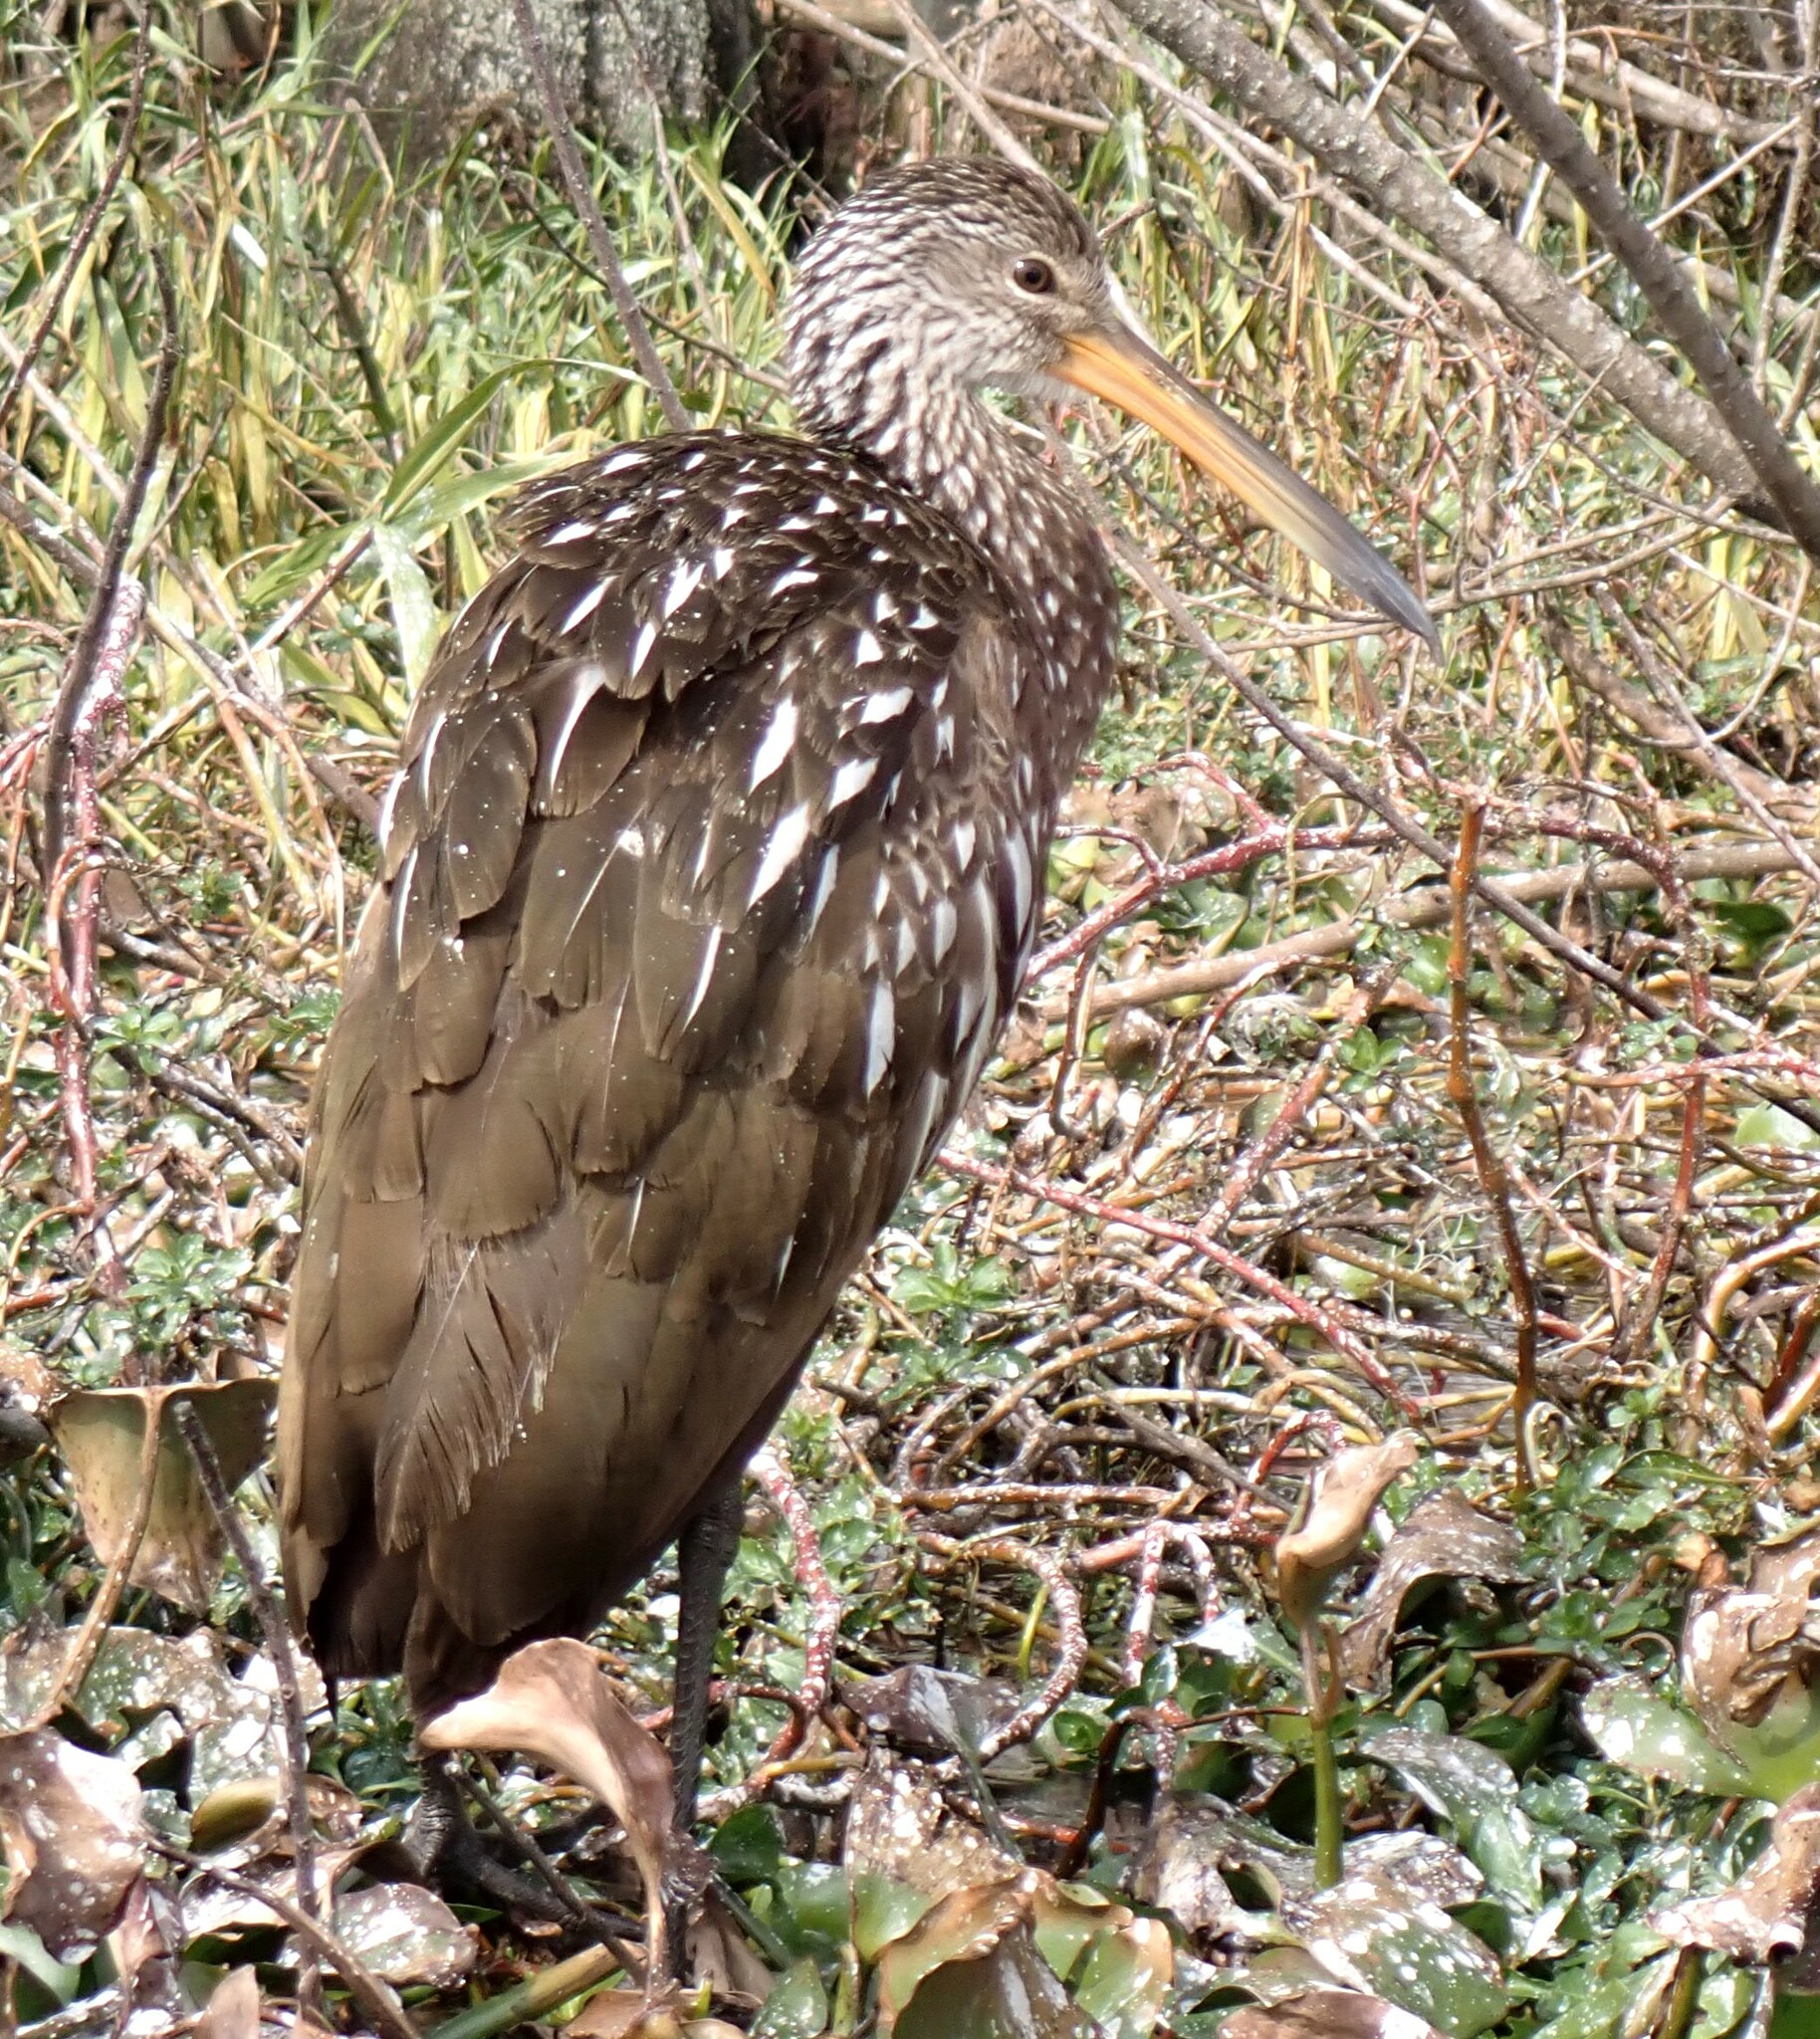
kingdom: Animalia
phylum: Chordata
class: Aves
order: Gruiformes
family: Aramidae
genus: Aramus
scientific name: Aramus guarauna
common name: Limpkin
